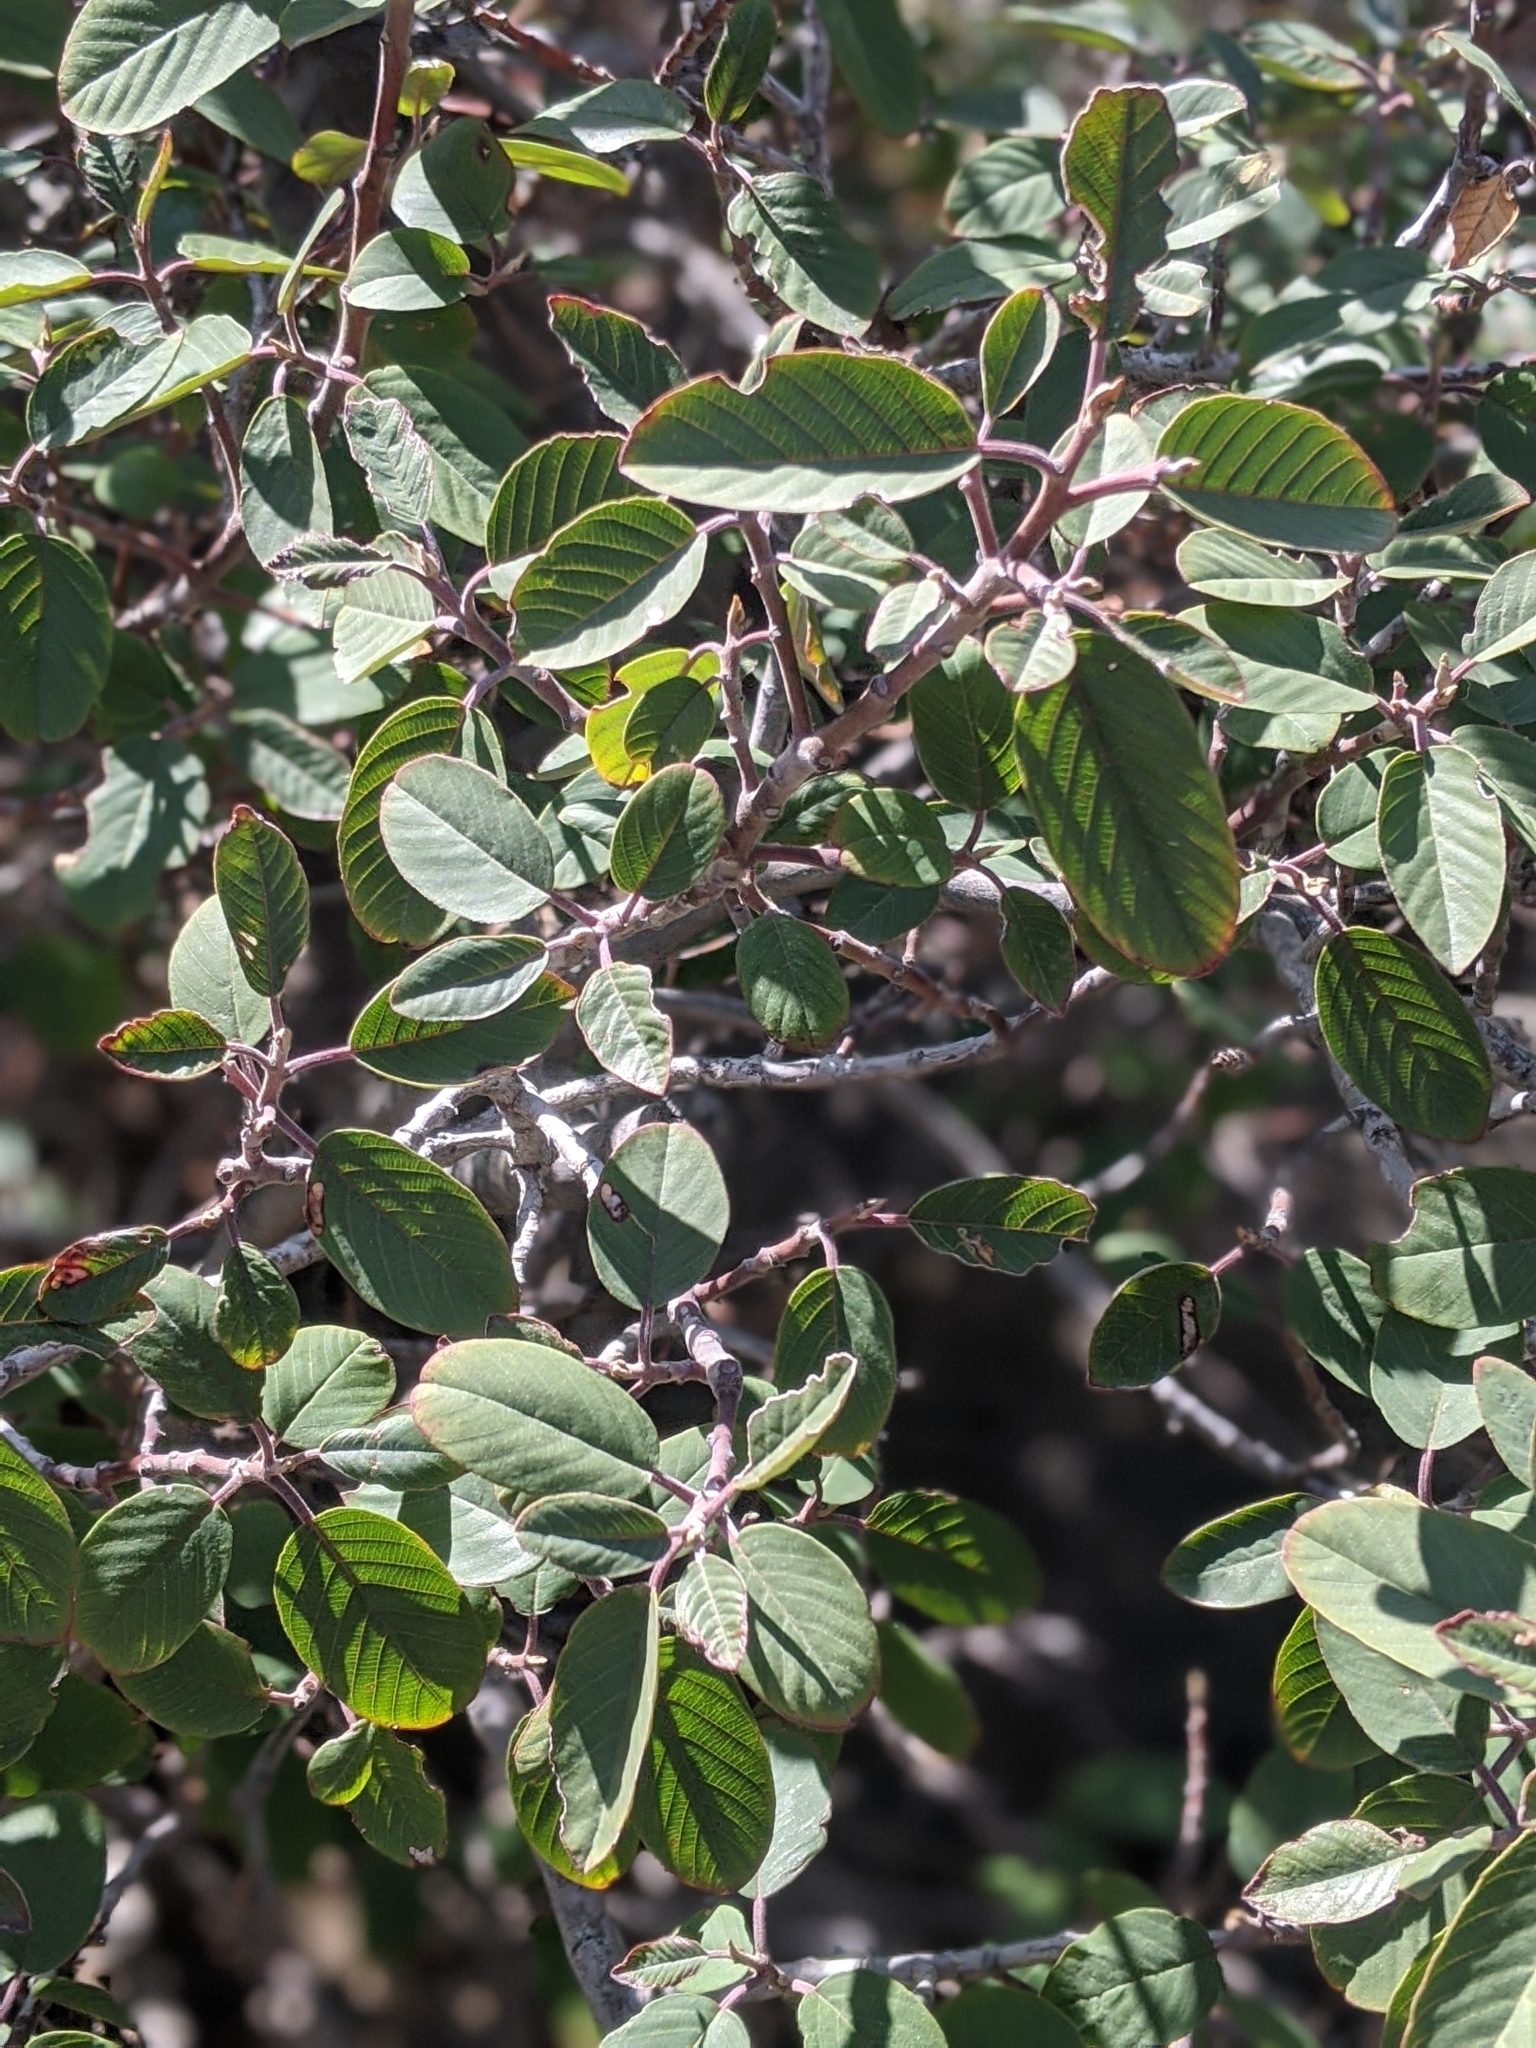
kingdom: Plantae
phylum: Tracheophyta
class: Magnoliopsida
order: Rosales
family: Rhamnaceae
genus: Frangula
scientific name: Frangula californica
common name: California buckthorn
